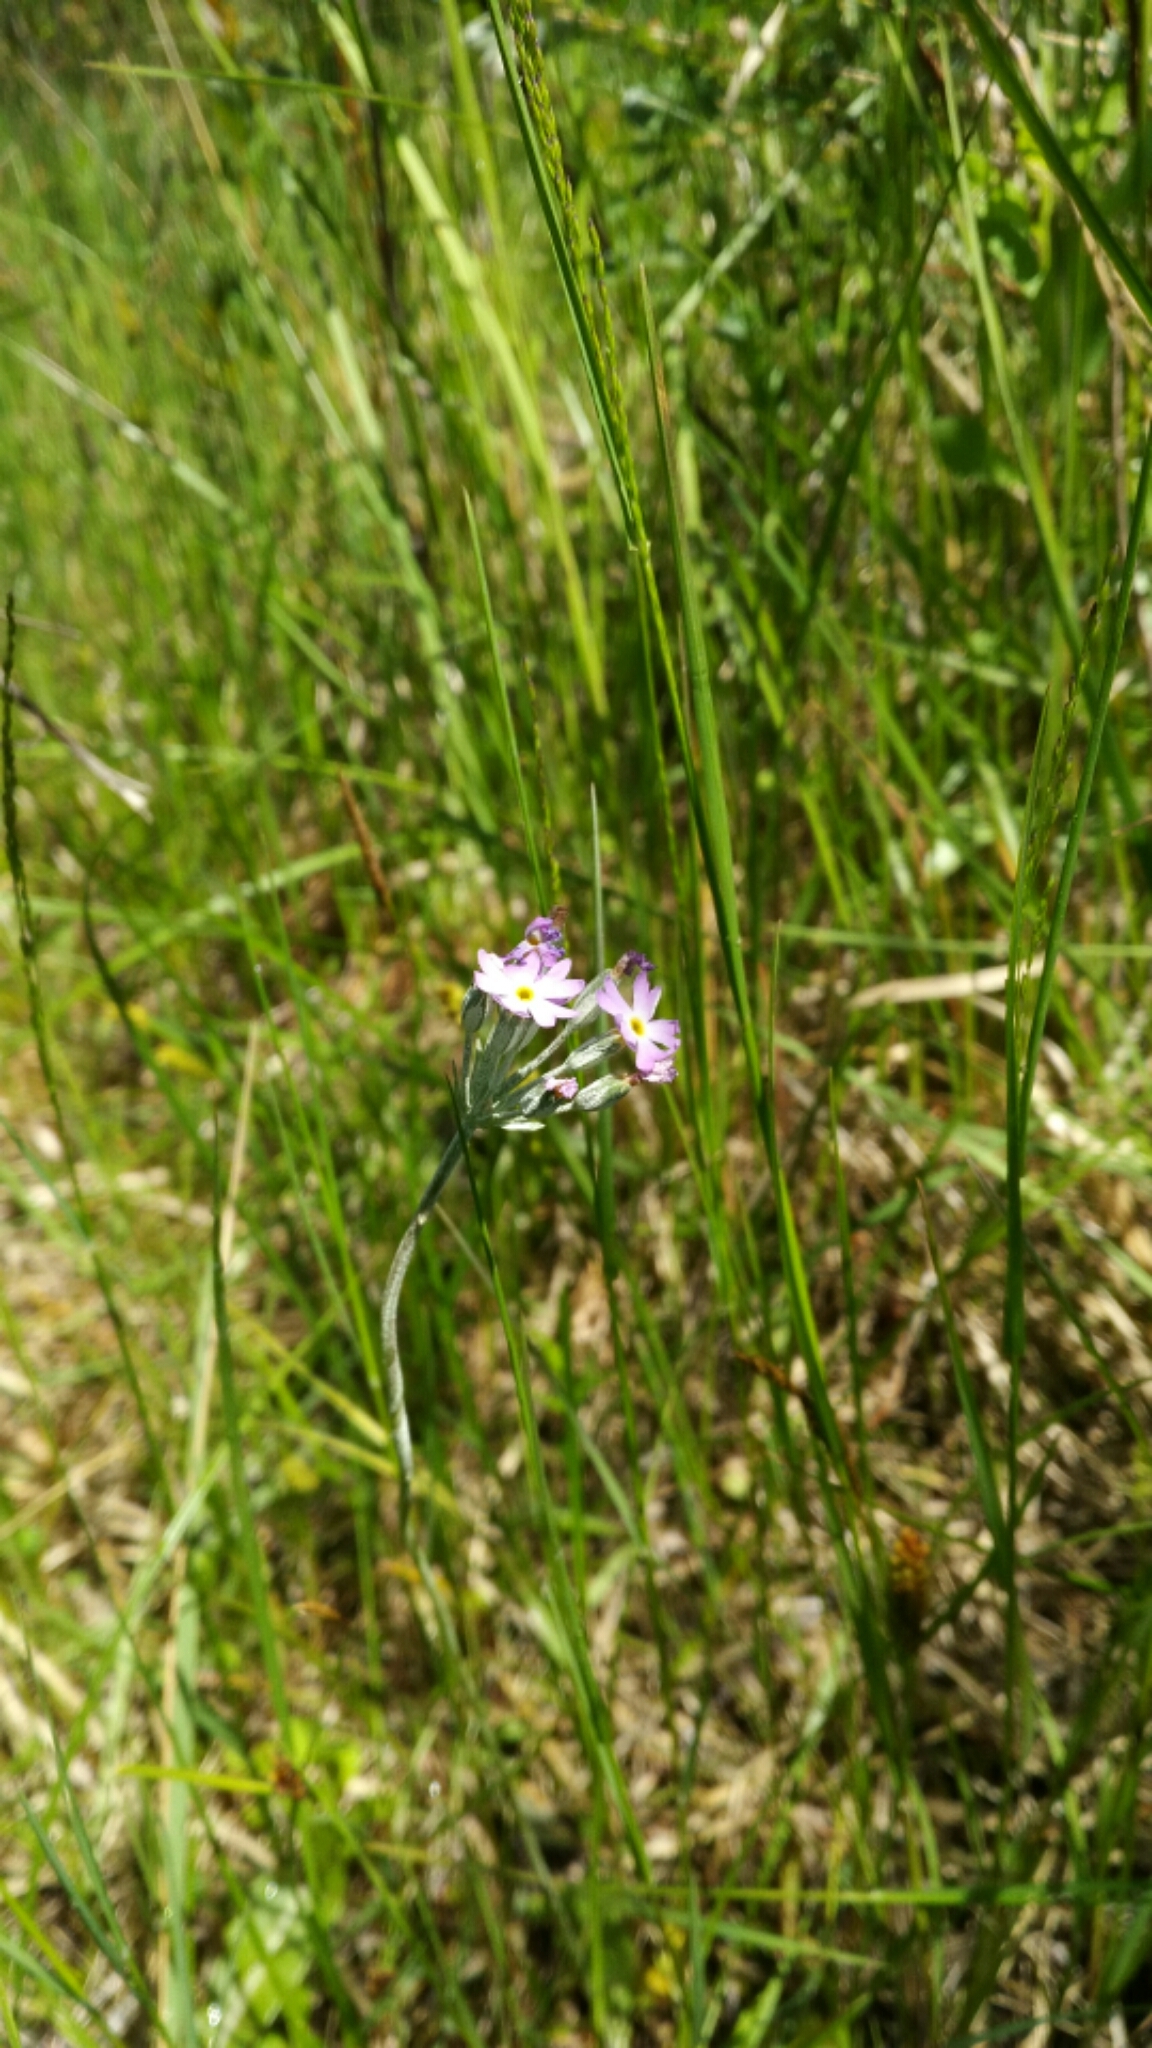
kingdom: Plantae
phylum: Tracheophyta
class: Magnoliopsida
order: Ericales
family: Primulaceae
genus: Primula
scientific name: Primula incana
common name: Hoary primrose
